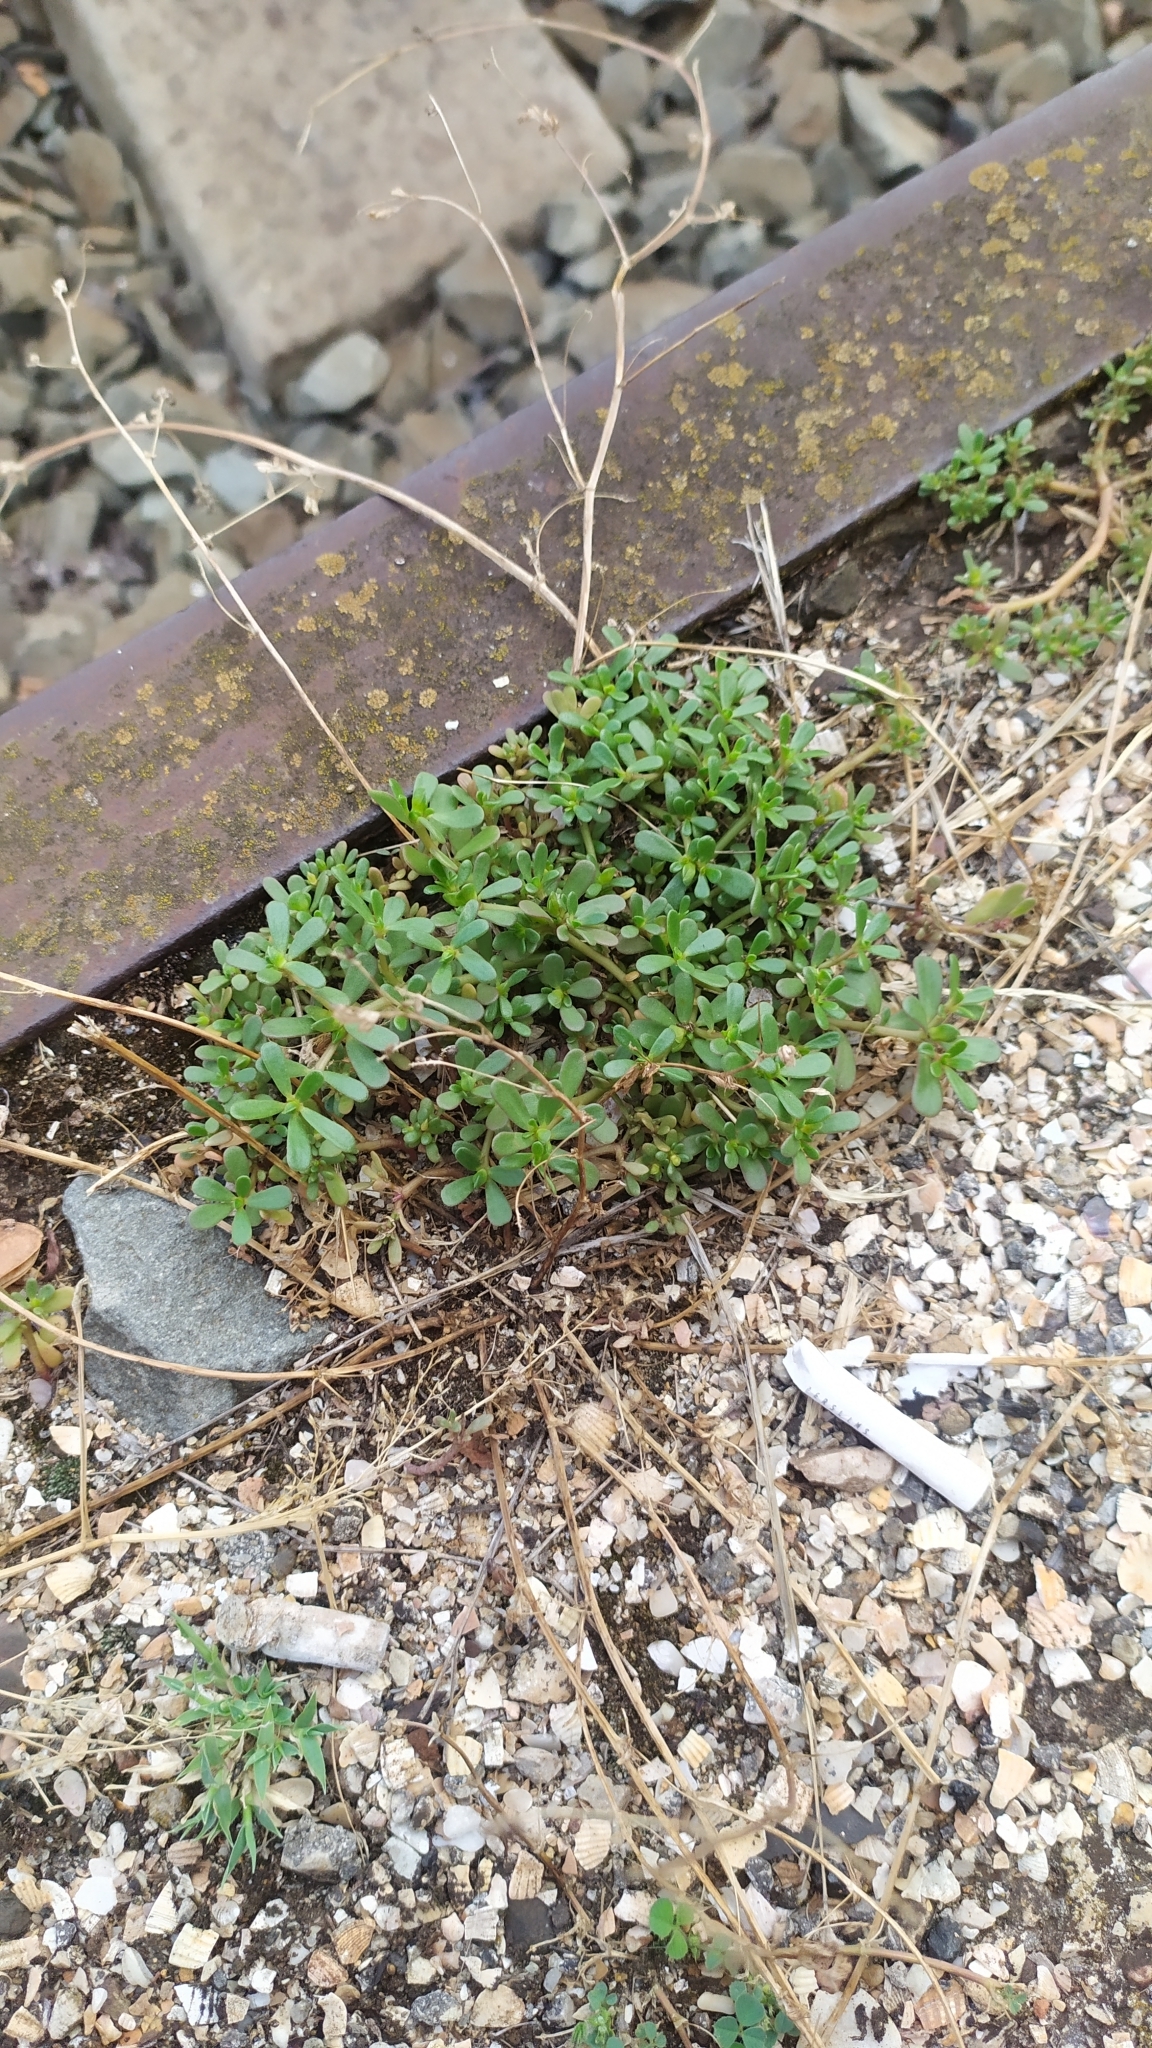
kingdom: Plantae
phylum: Tracheophyta
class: Magnoliopsida
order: Caryophyllales
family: Portulacaceae
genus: Portulaca
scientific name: Portulaca oleracea
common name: Common purslane
